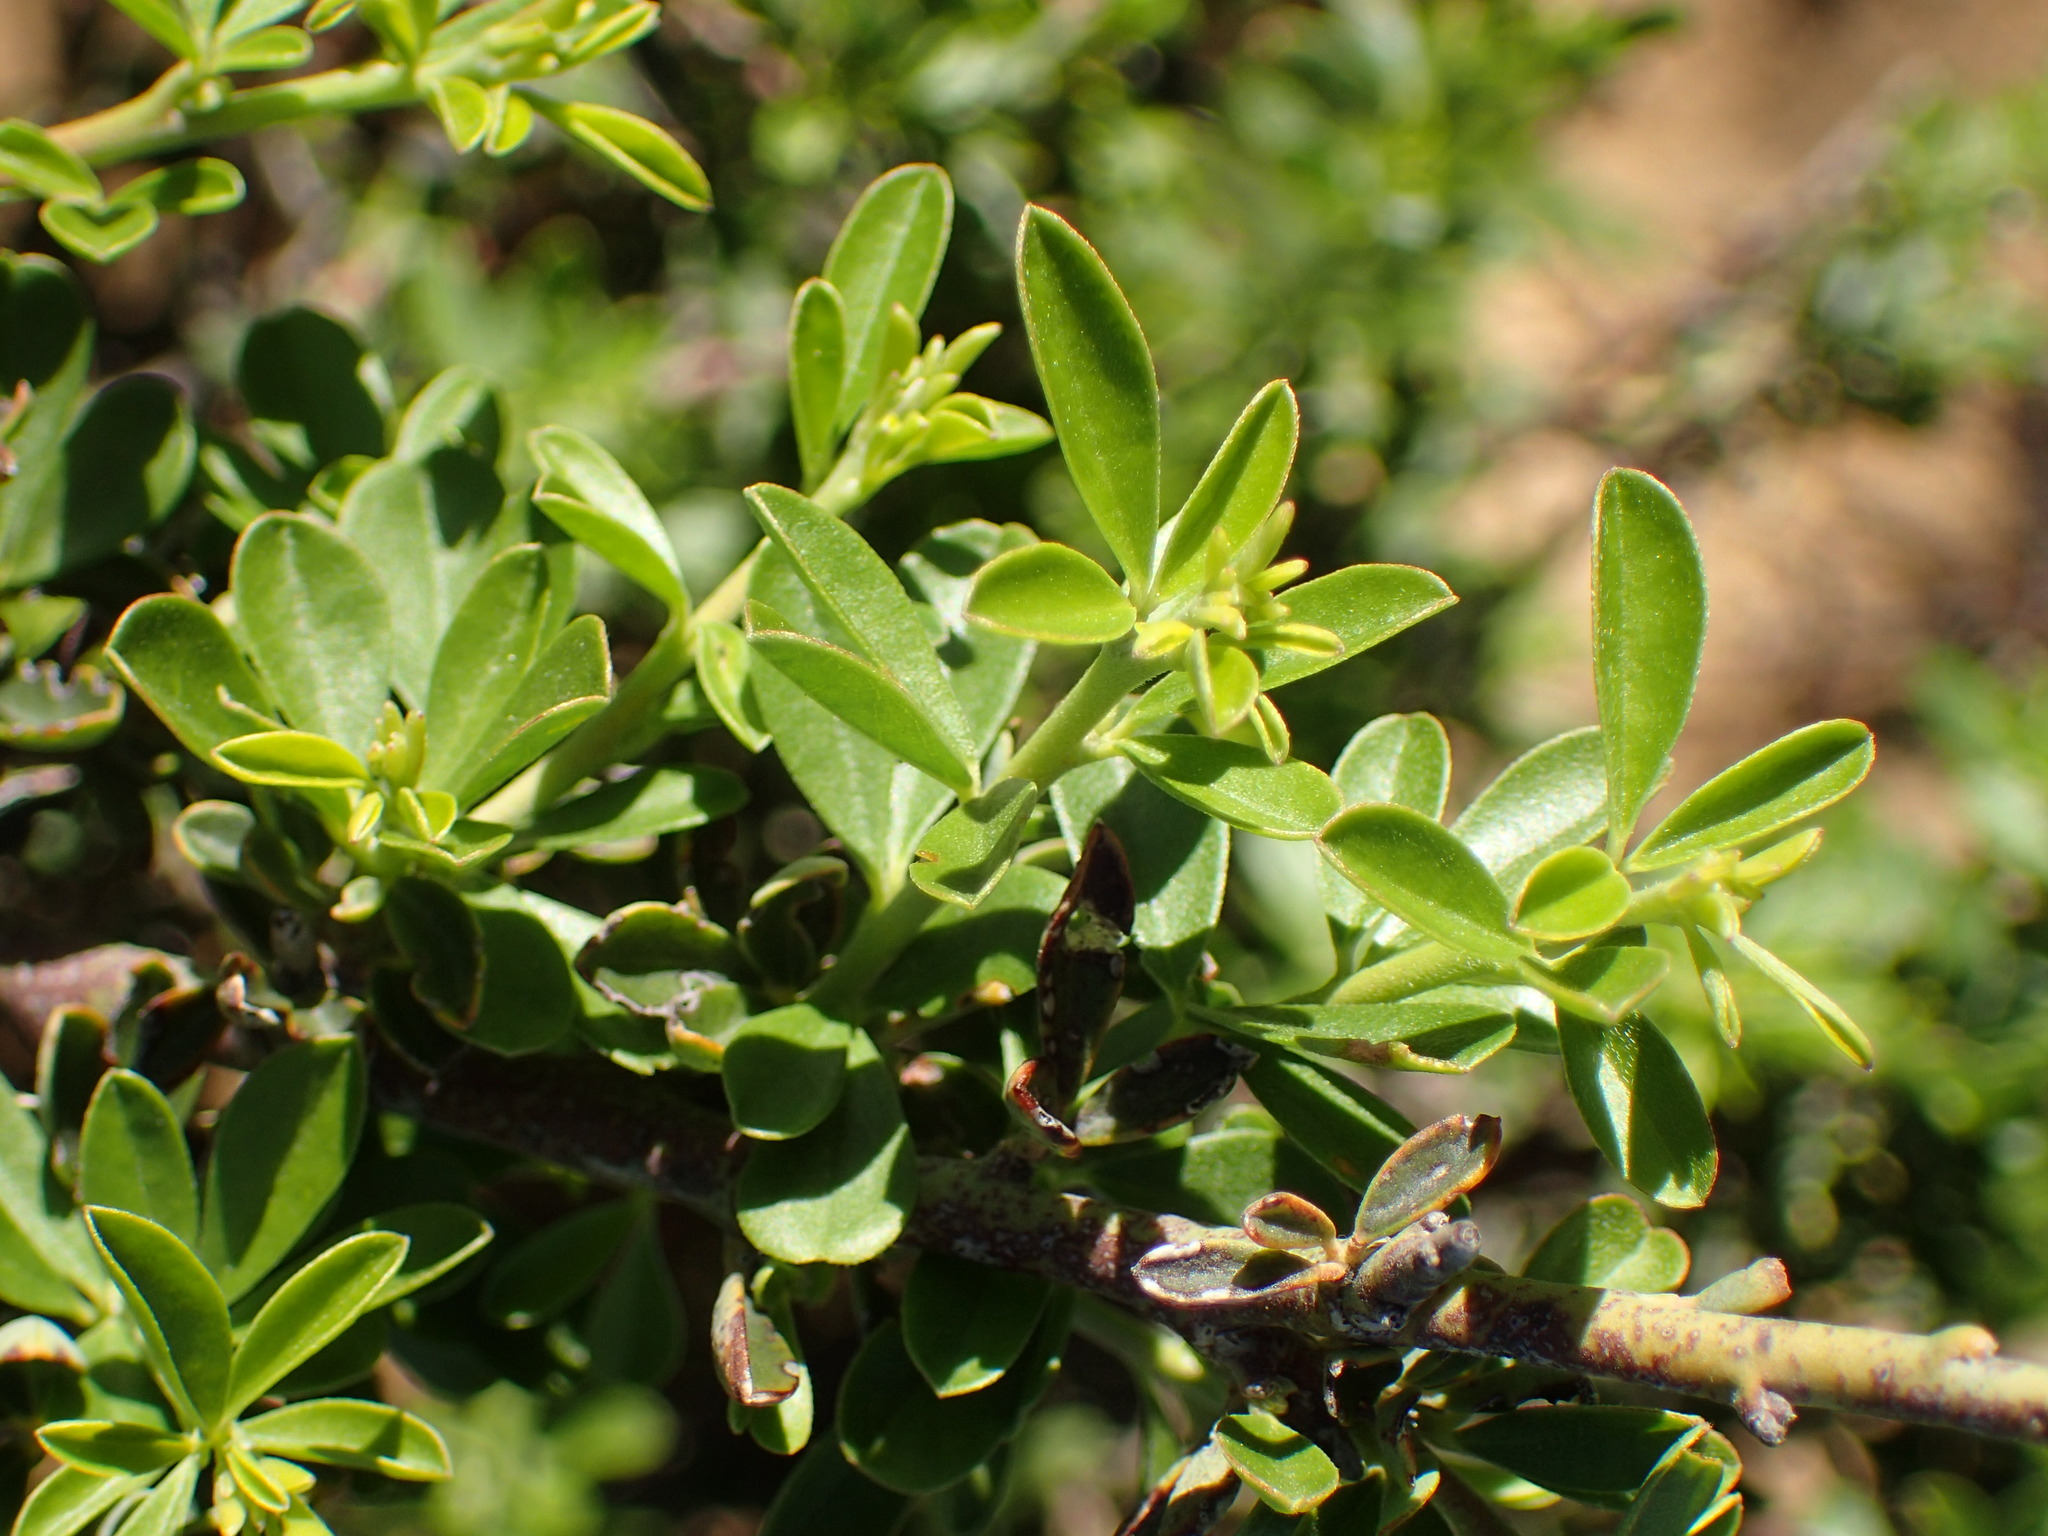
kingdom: Plantae
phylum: Tracheophyta
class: Magnoliopsida
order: Fabales
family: Fabaceae
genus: Pickeringia
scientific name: Pickeringia montana
